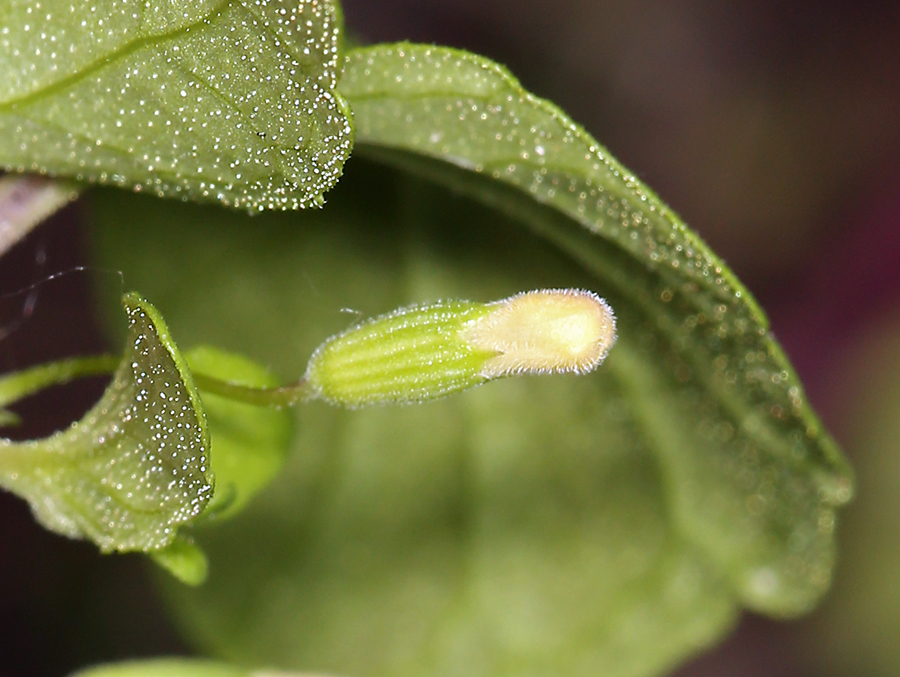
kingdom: Plantae
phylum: Tracheophyta
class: Magnoliopsida
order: Lamiales
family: Lamiaceae
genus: Micromeria
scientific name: Micromeria douglasii
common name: Yerba buena
